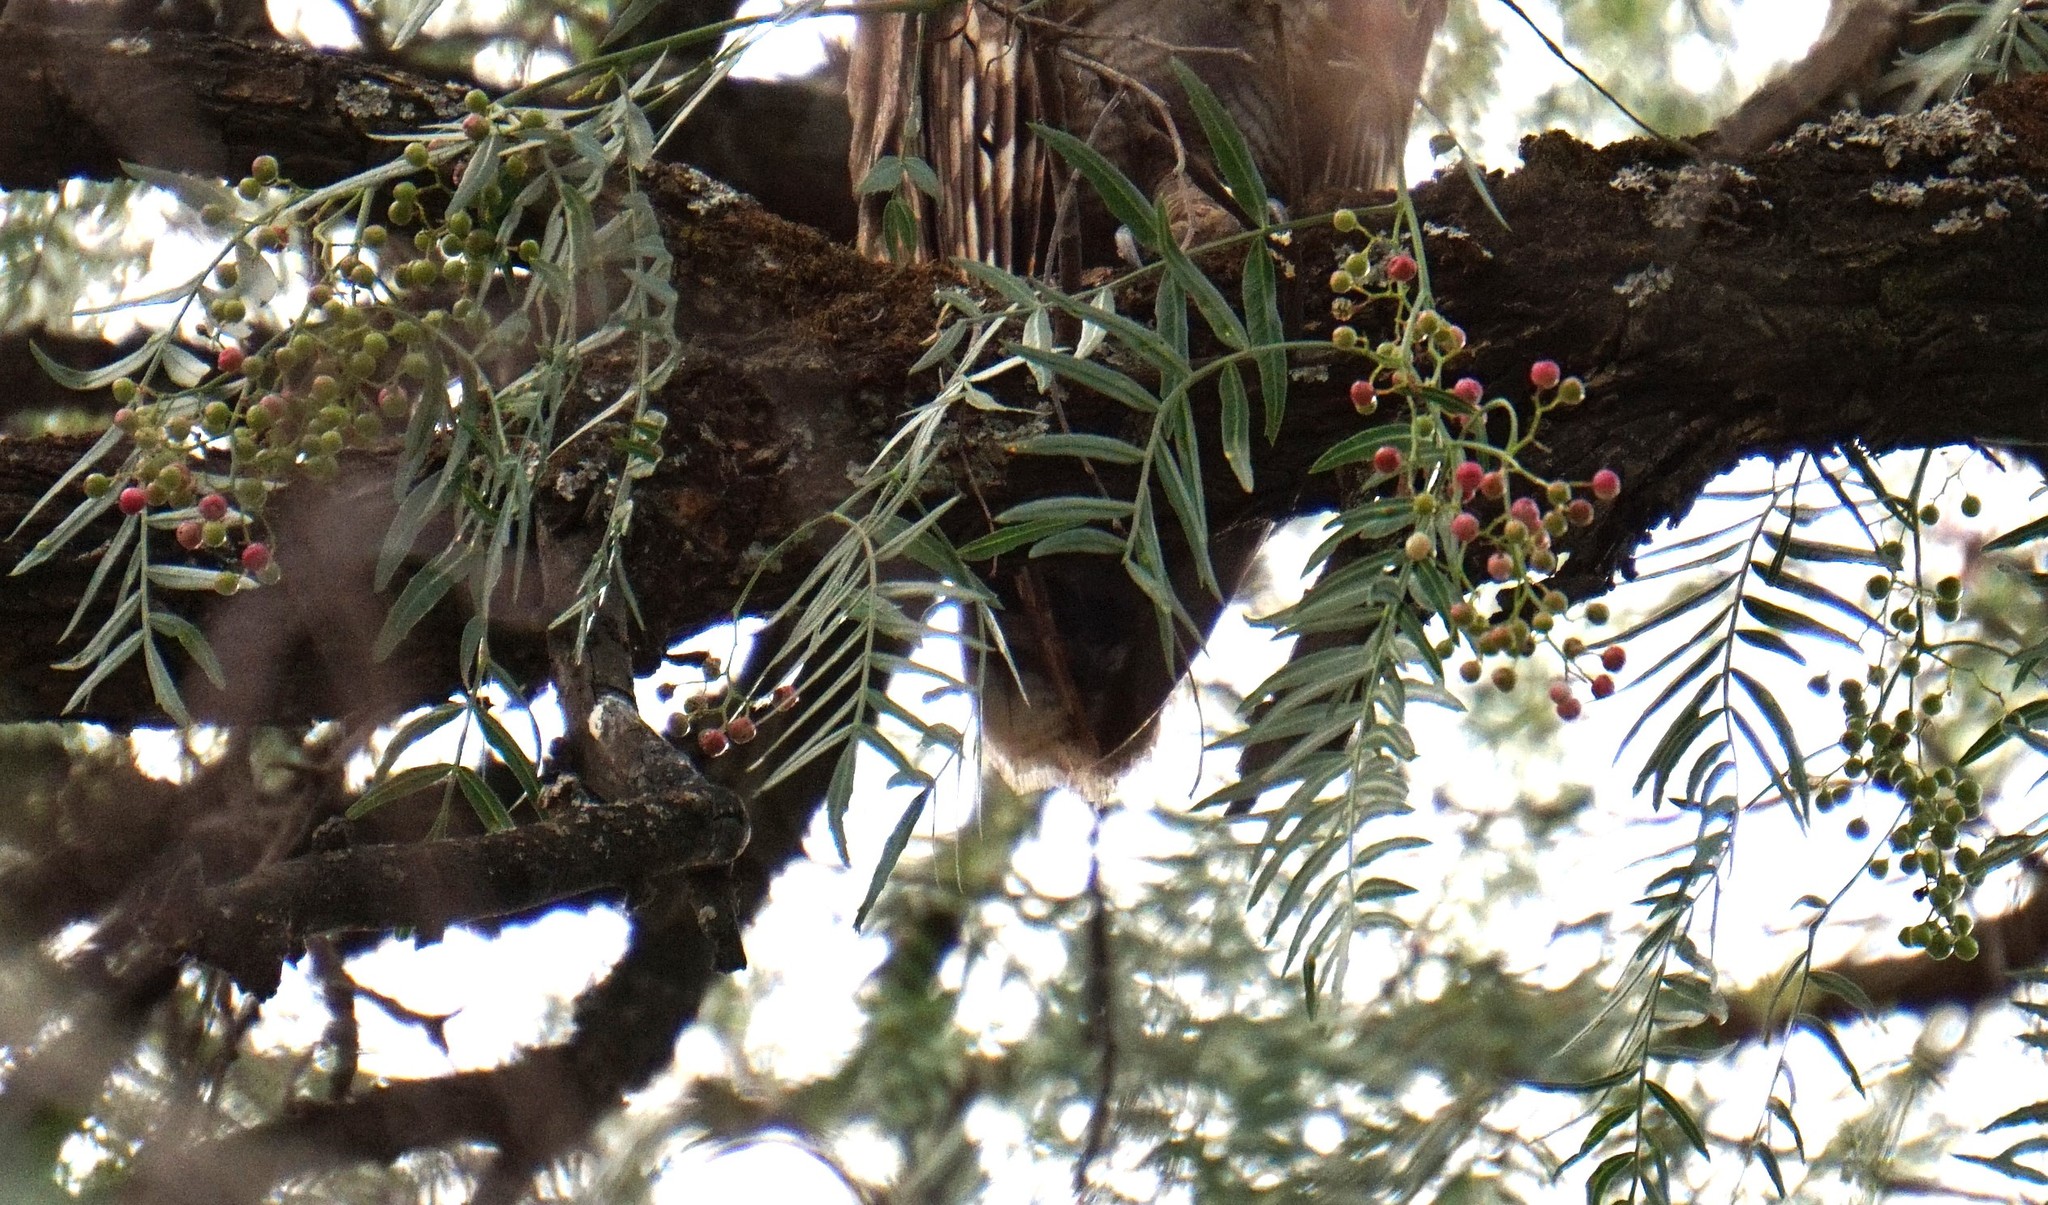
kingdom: Plantae
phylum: Tracheophyta
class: Magnoliopsida
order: Sapindales
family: Anacardiaceae
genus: Schinus
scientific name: Schinus molle
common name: Peruvian peppertree
